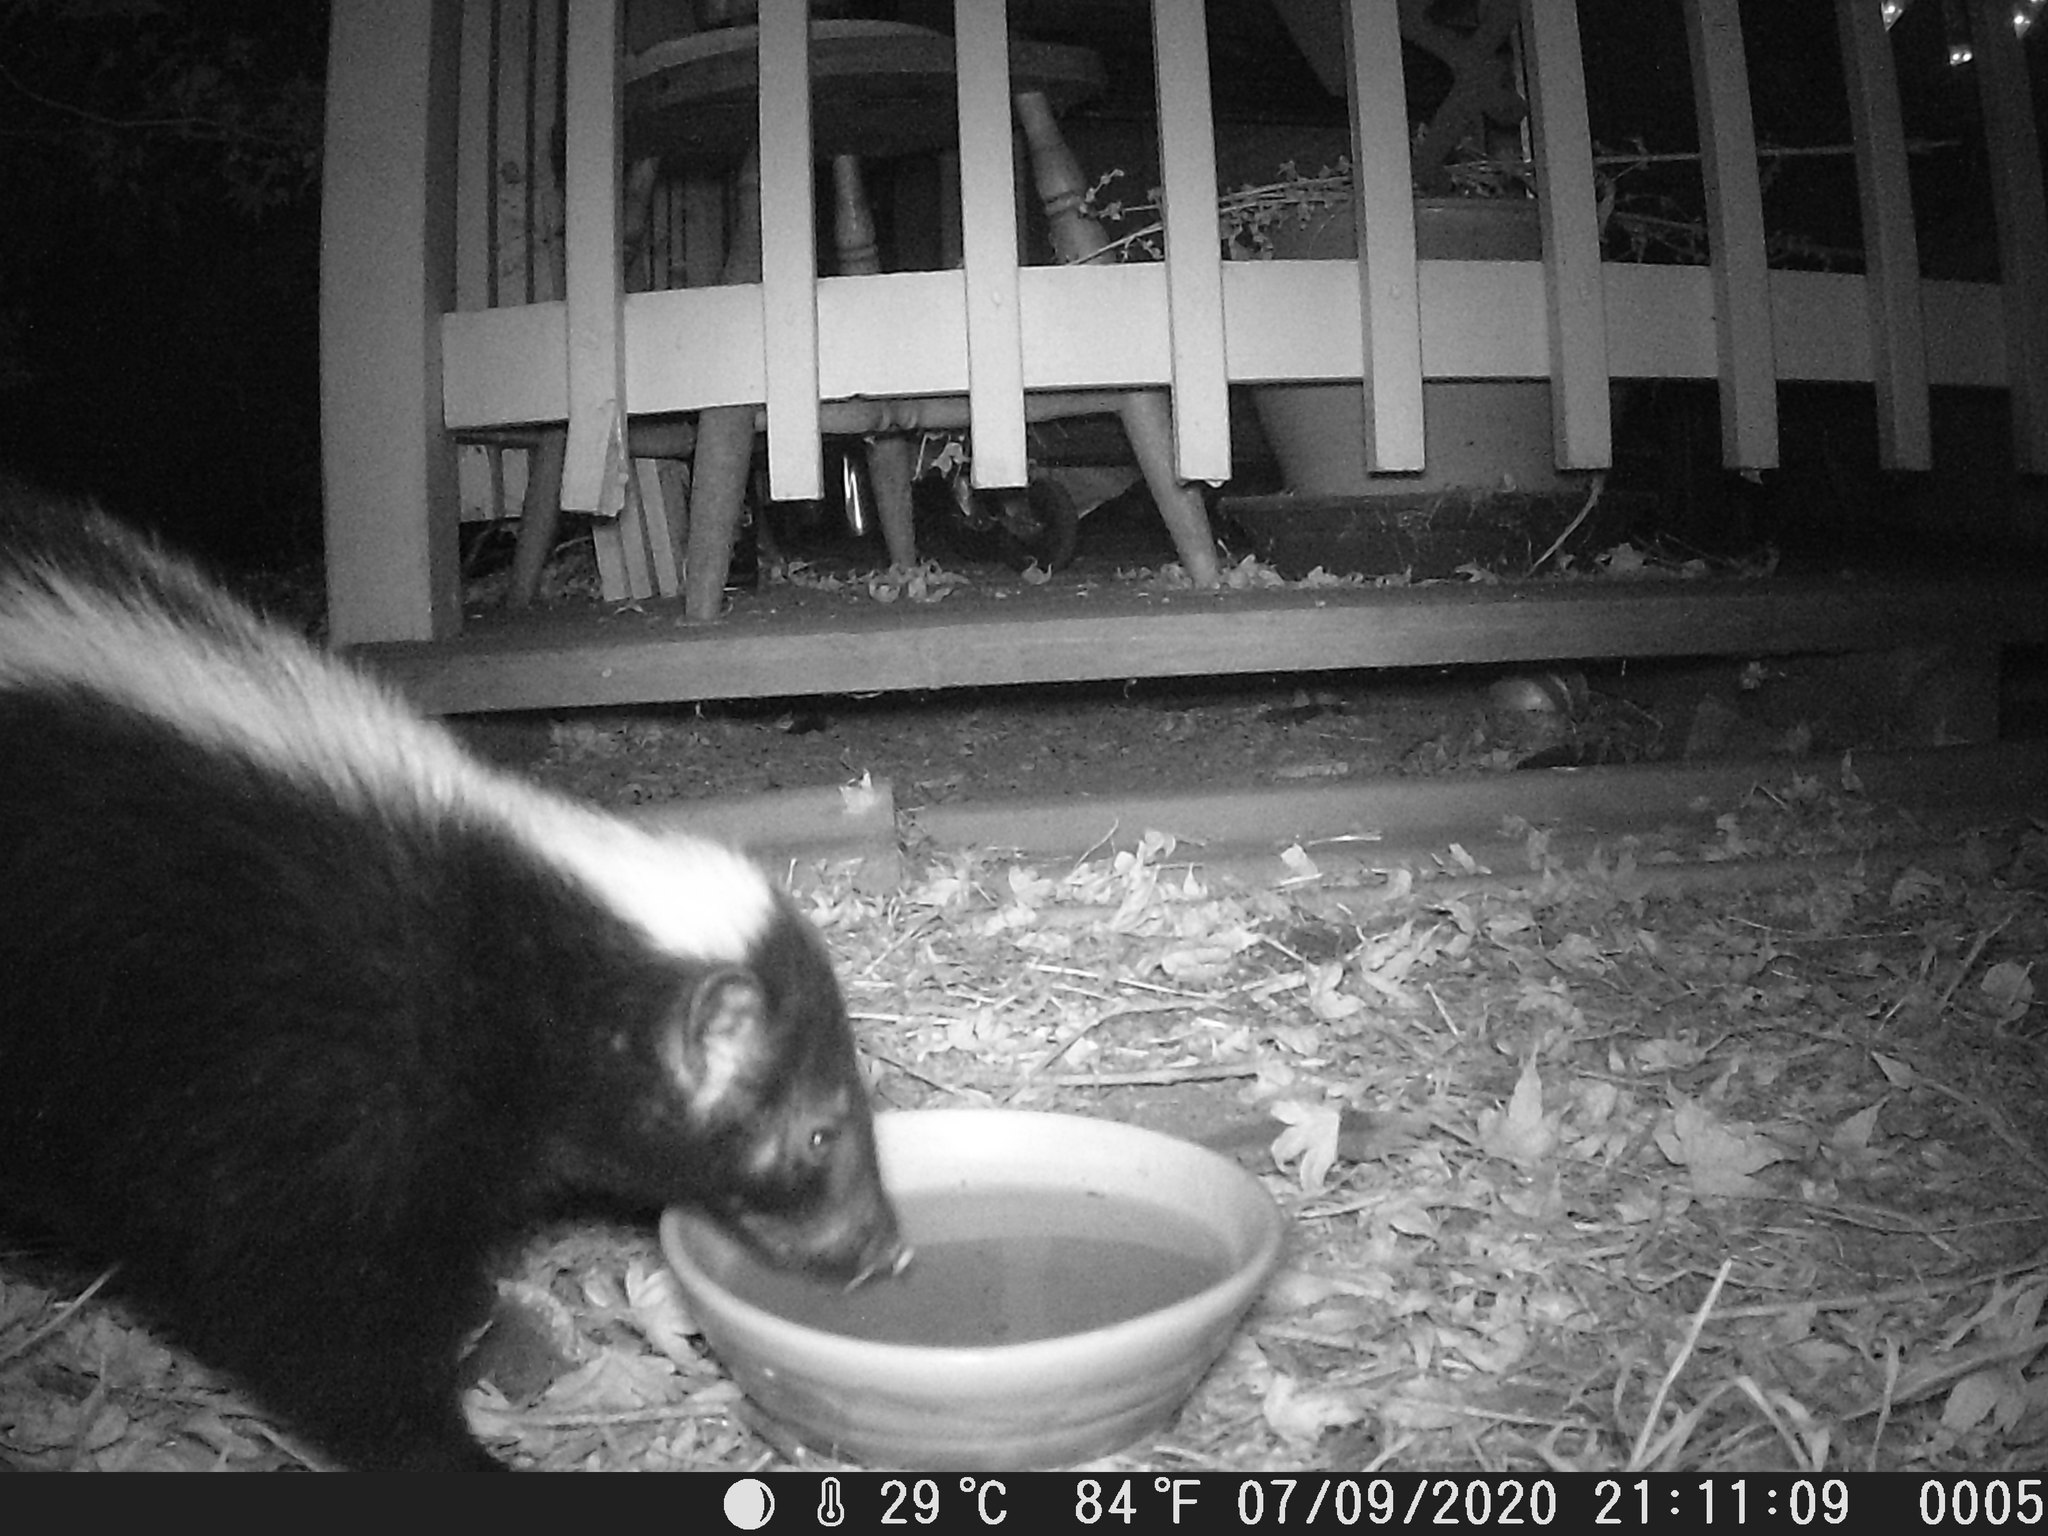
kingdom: Animalia
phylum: Chordata
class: Mammalia
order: Carnivora
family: Mephitidae
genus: Mephitis
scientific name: Mephitis mephitis
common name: Striped skunk
